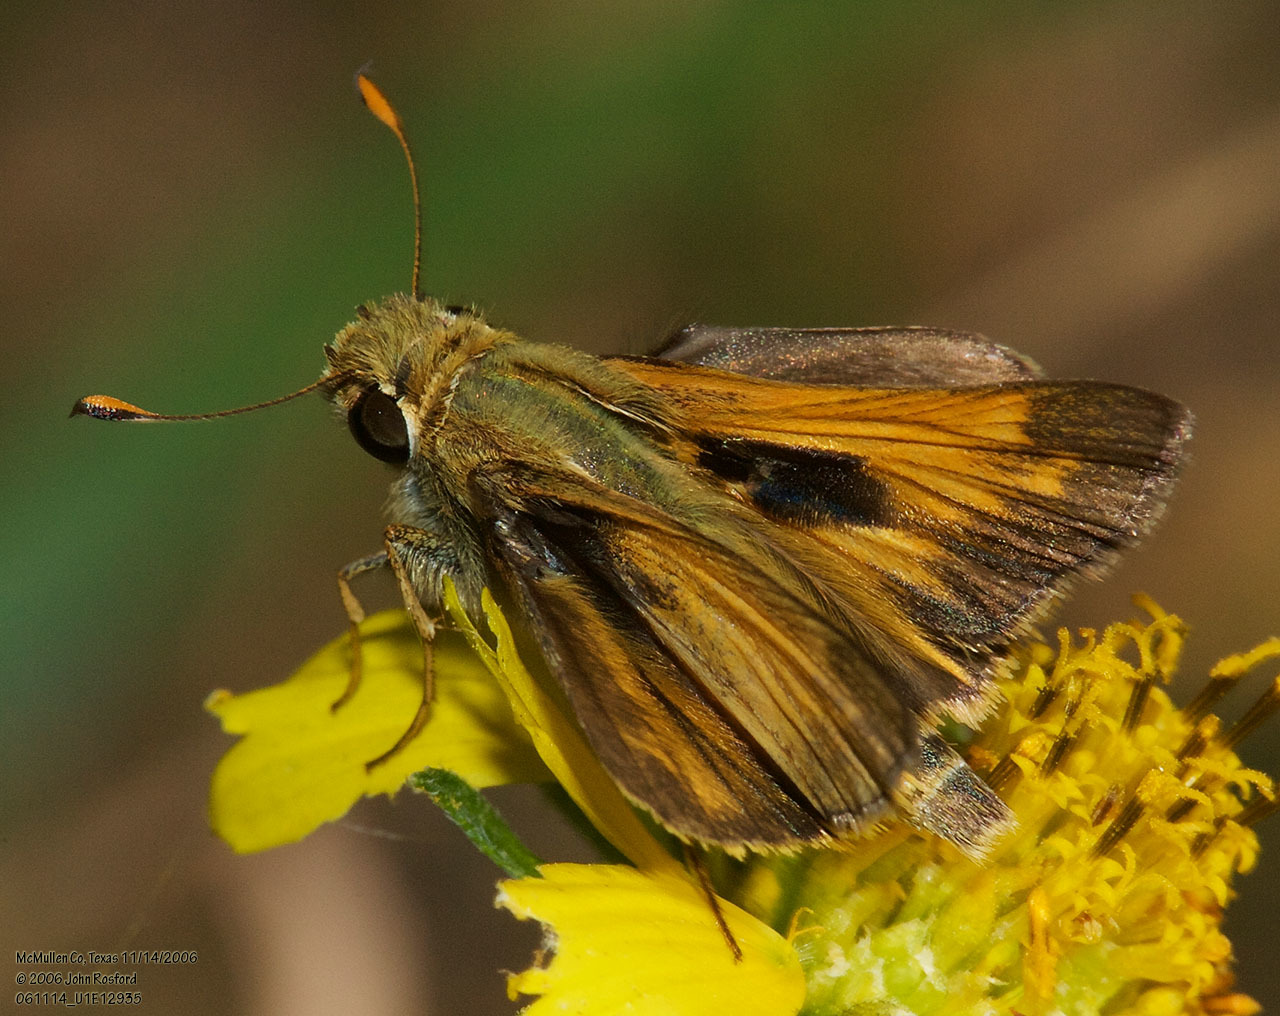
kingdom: Animalia
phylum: Arthropoda
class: Insecta
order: Lepidoptera
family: Hesperiidae
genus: Atalopedes
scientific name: Atalopedes
